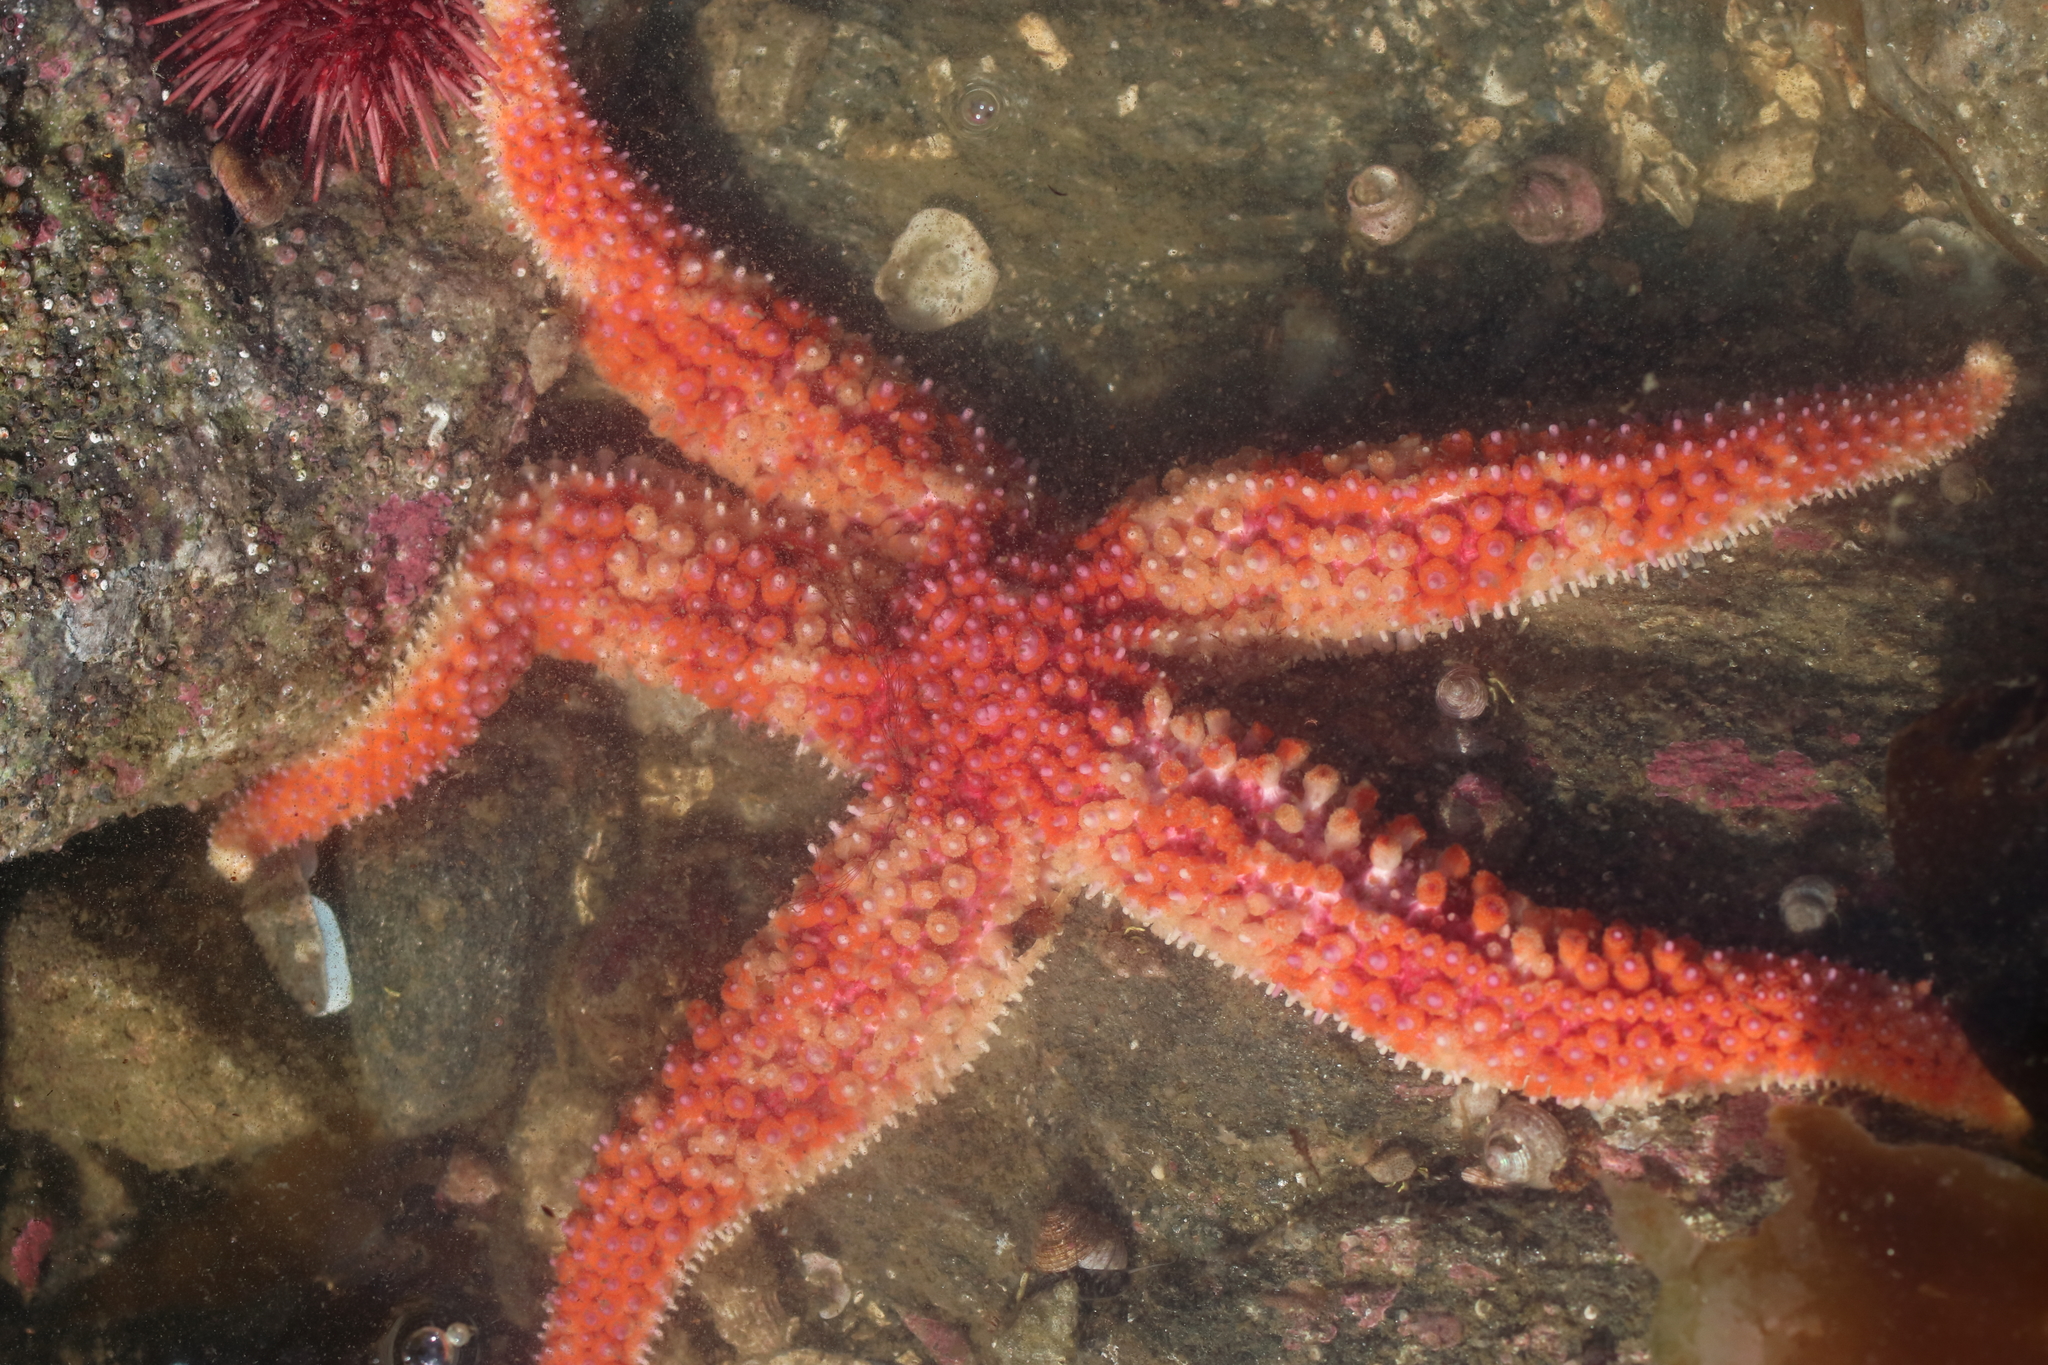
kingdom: Animalia
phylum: Echinodermata
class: Asteroidea
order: Forcipulatida
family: Asteriidae
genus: Orthasterias
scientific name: Orthasterias koehleri
